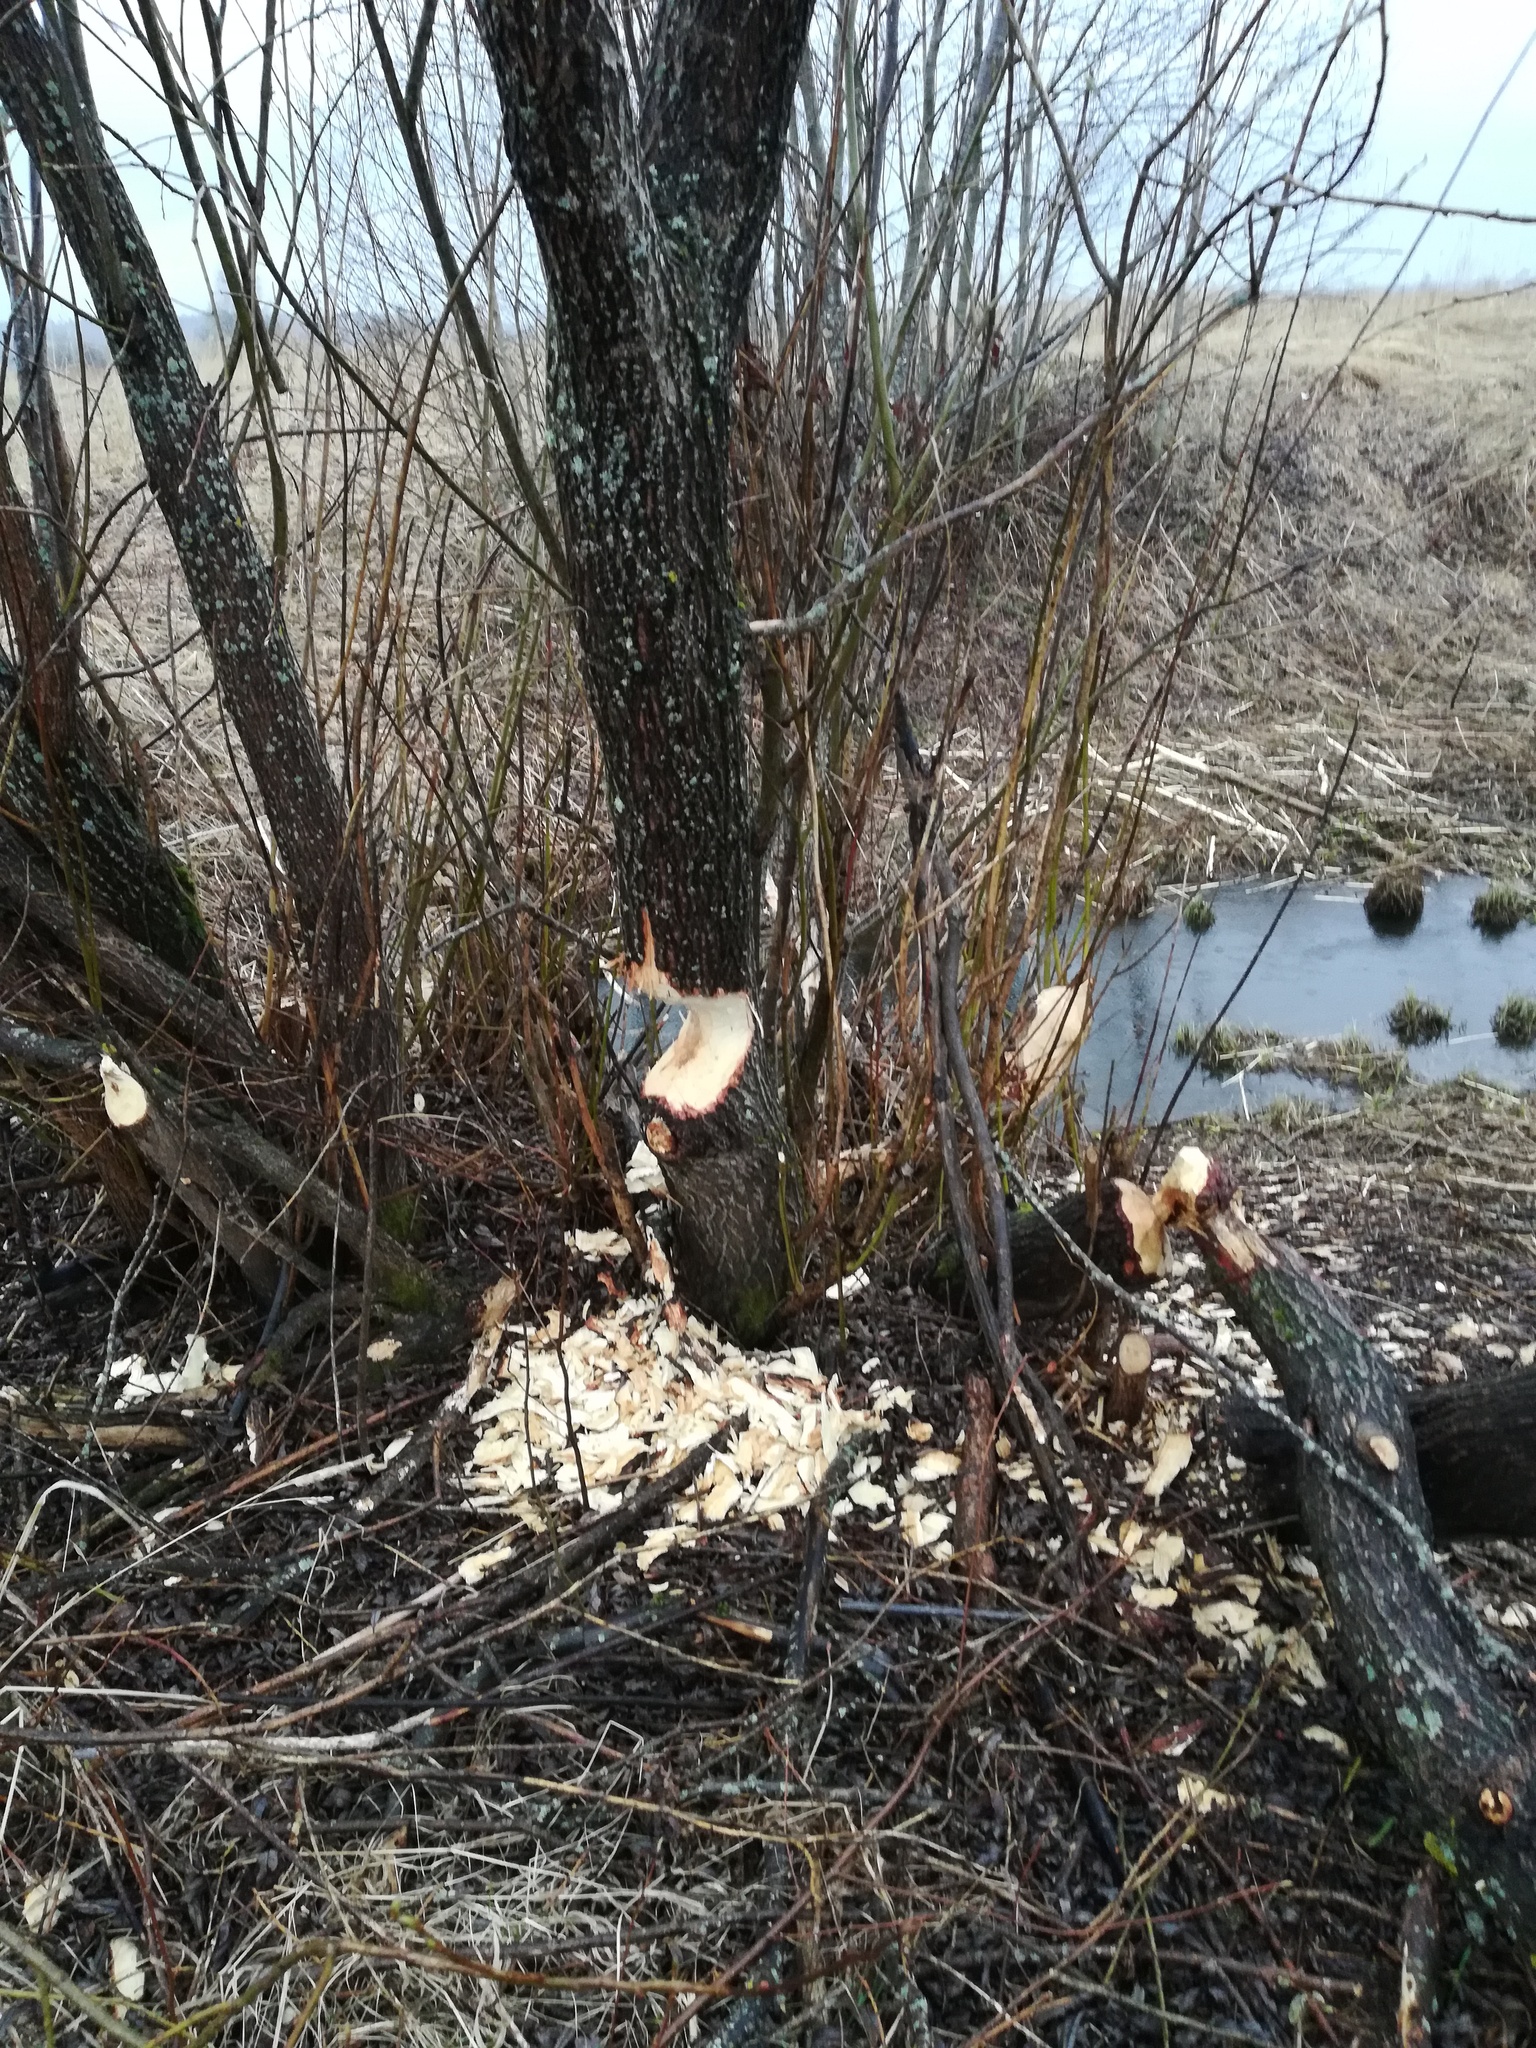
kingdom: Animalia
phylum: Chordata
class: Mammalia
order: Rodentia
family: Castoridae
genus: Castor
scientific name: Castor fiber
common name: Eurasian beaver
